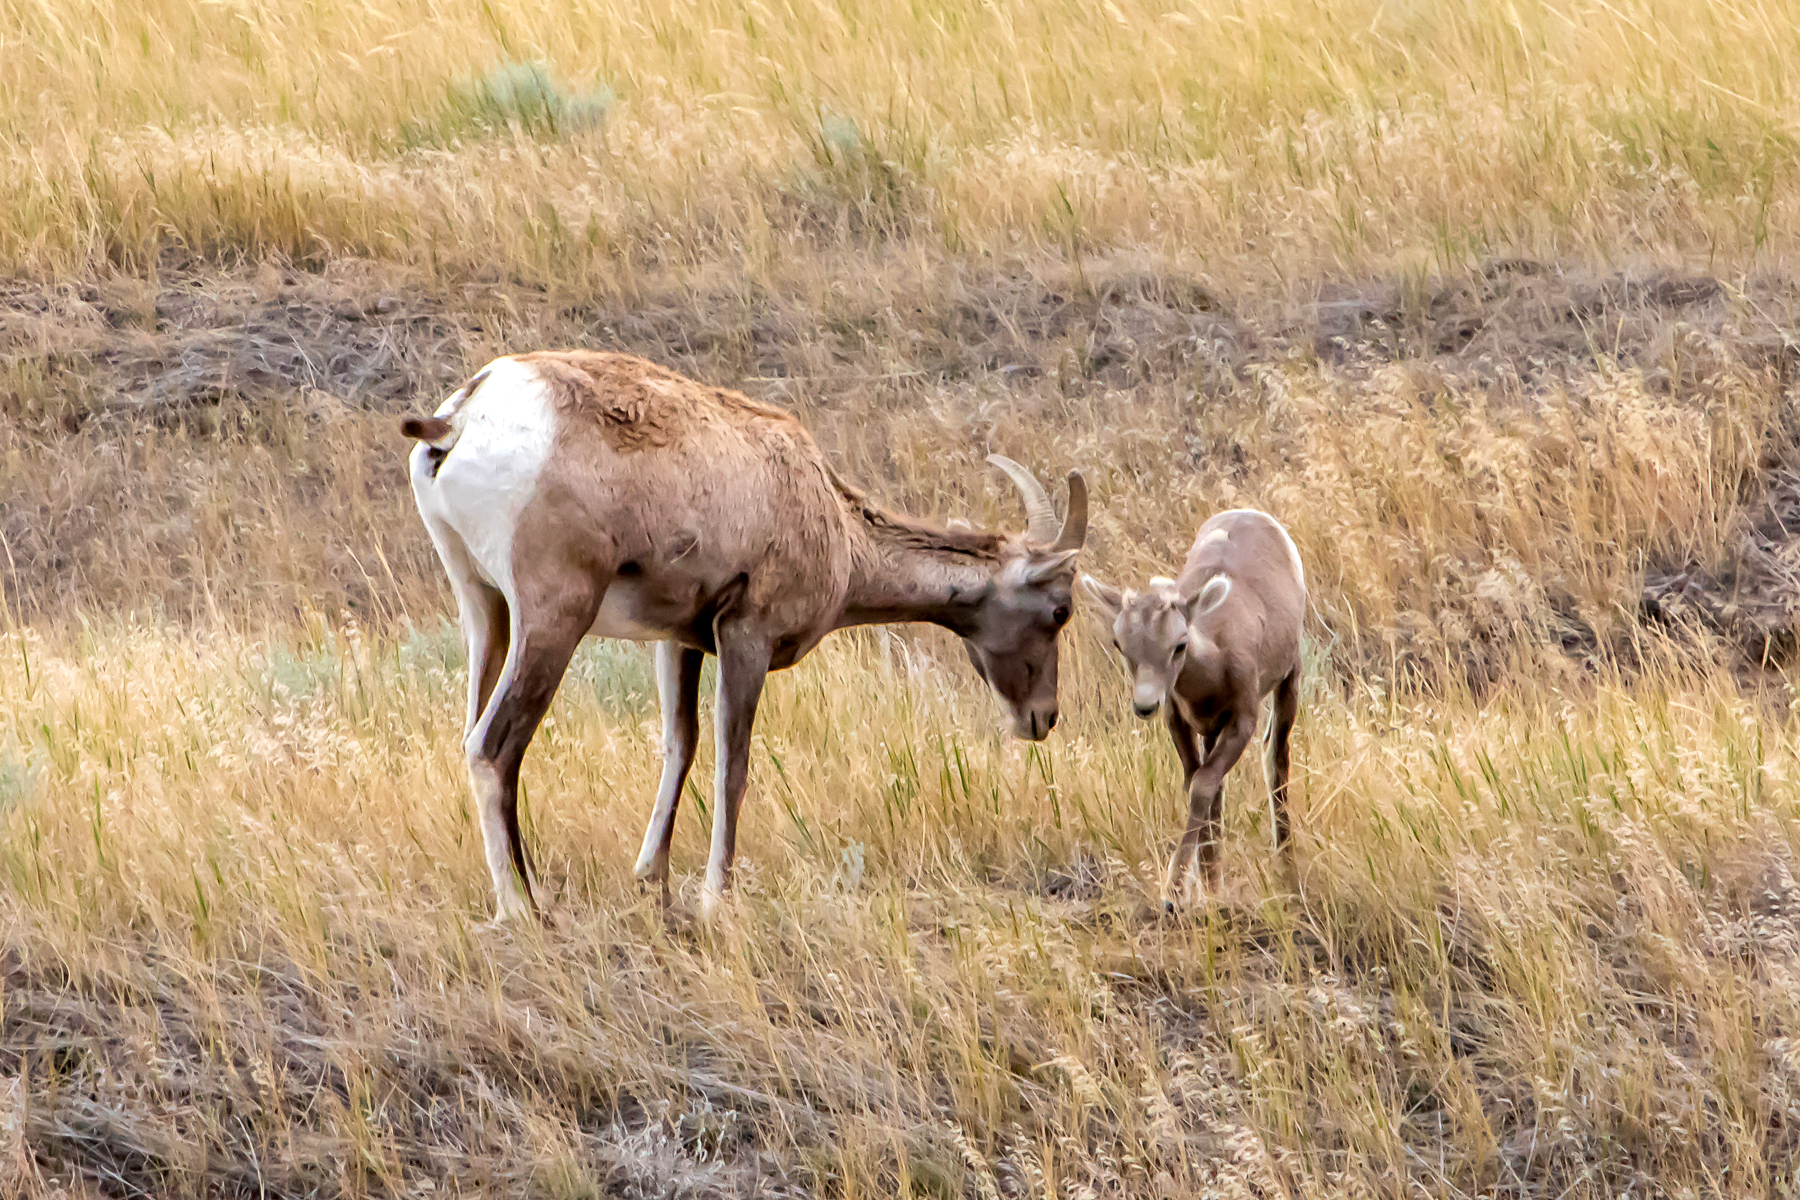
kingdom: Animalia
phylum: Chordata
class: Mammalia
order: Artiodactyla
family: Bovidae
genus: Ovis
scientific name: Ovis canadensis
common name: Bighorn sheep
